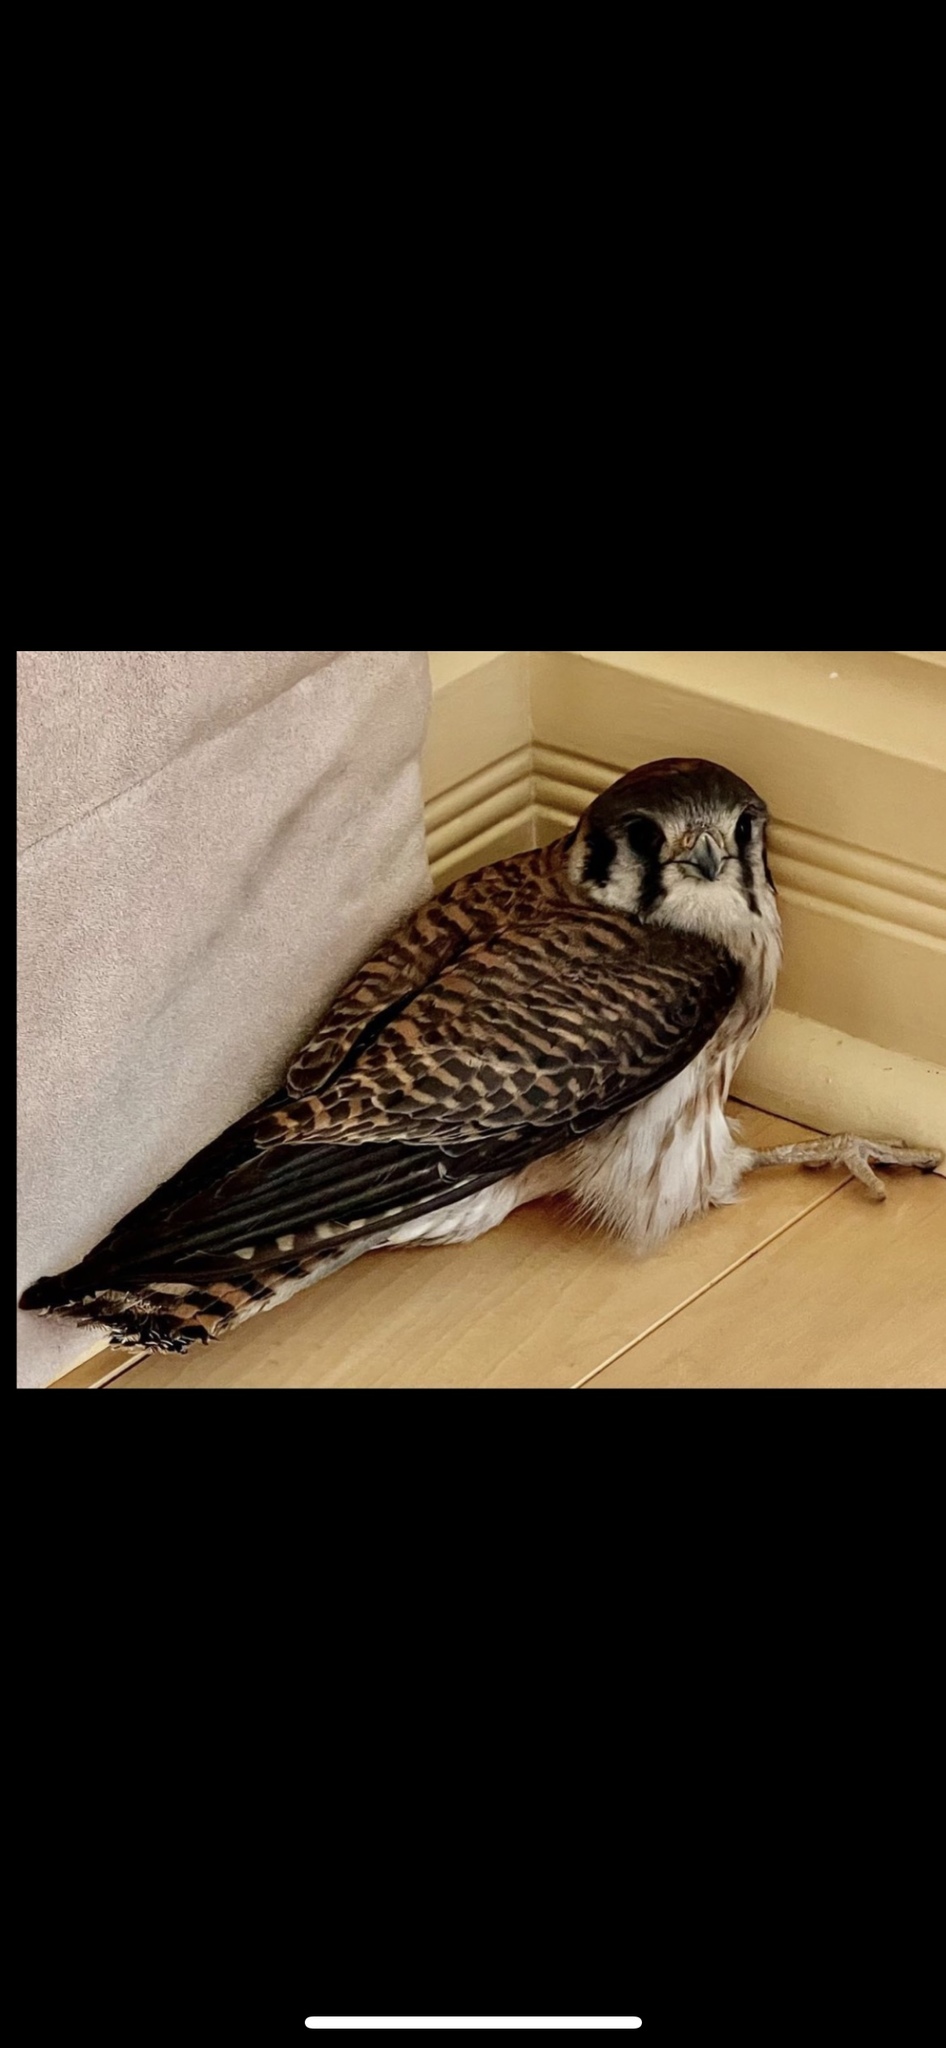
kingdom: Animalia
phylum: Chordata
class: Aves
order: Falconiformes
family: Falconidae
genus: Falco
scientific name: Falco sparverius
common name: American kestrel
